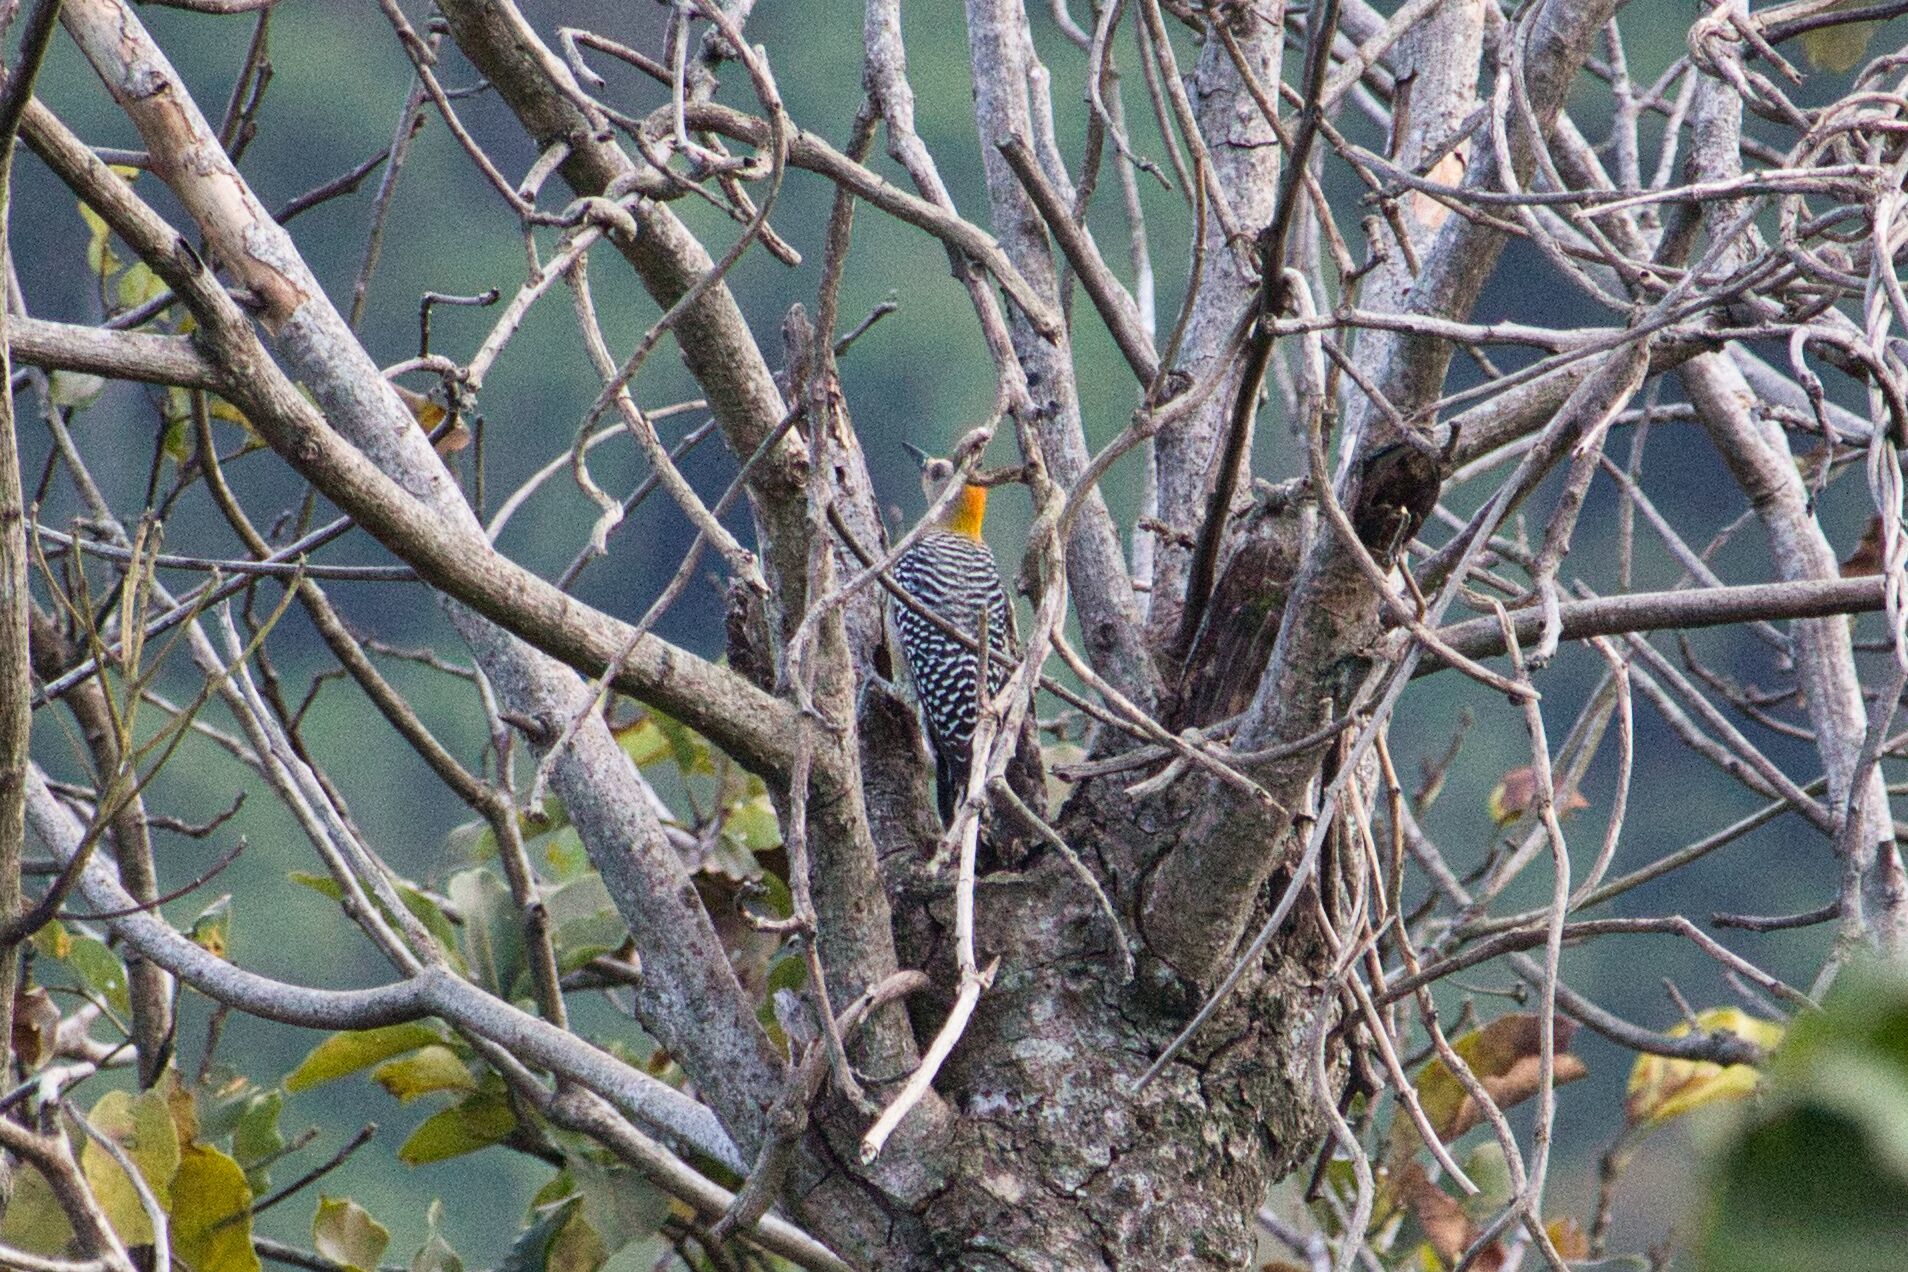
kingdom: Animalia
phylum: Chordata
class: Aves
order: Piciformes
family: Picidae
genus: Melanerpes
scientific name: Melanerpes hoffmannii
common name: Hoffmann's woodpecker
